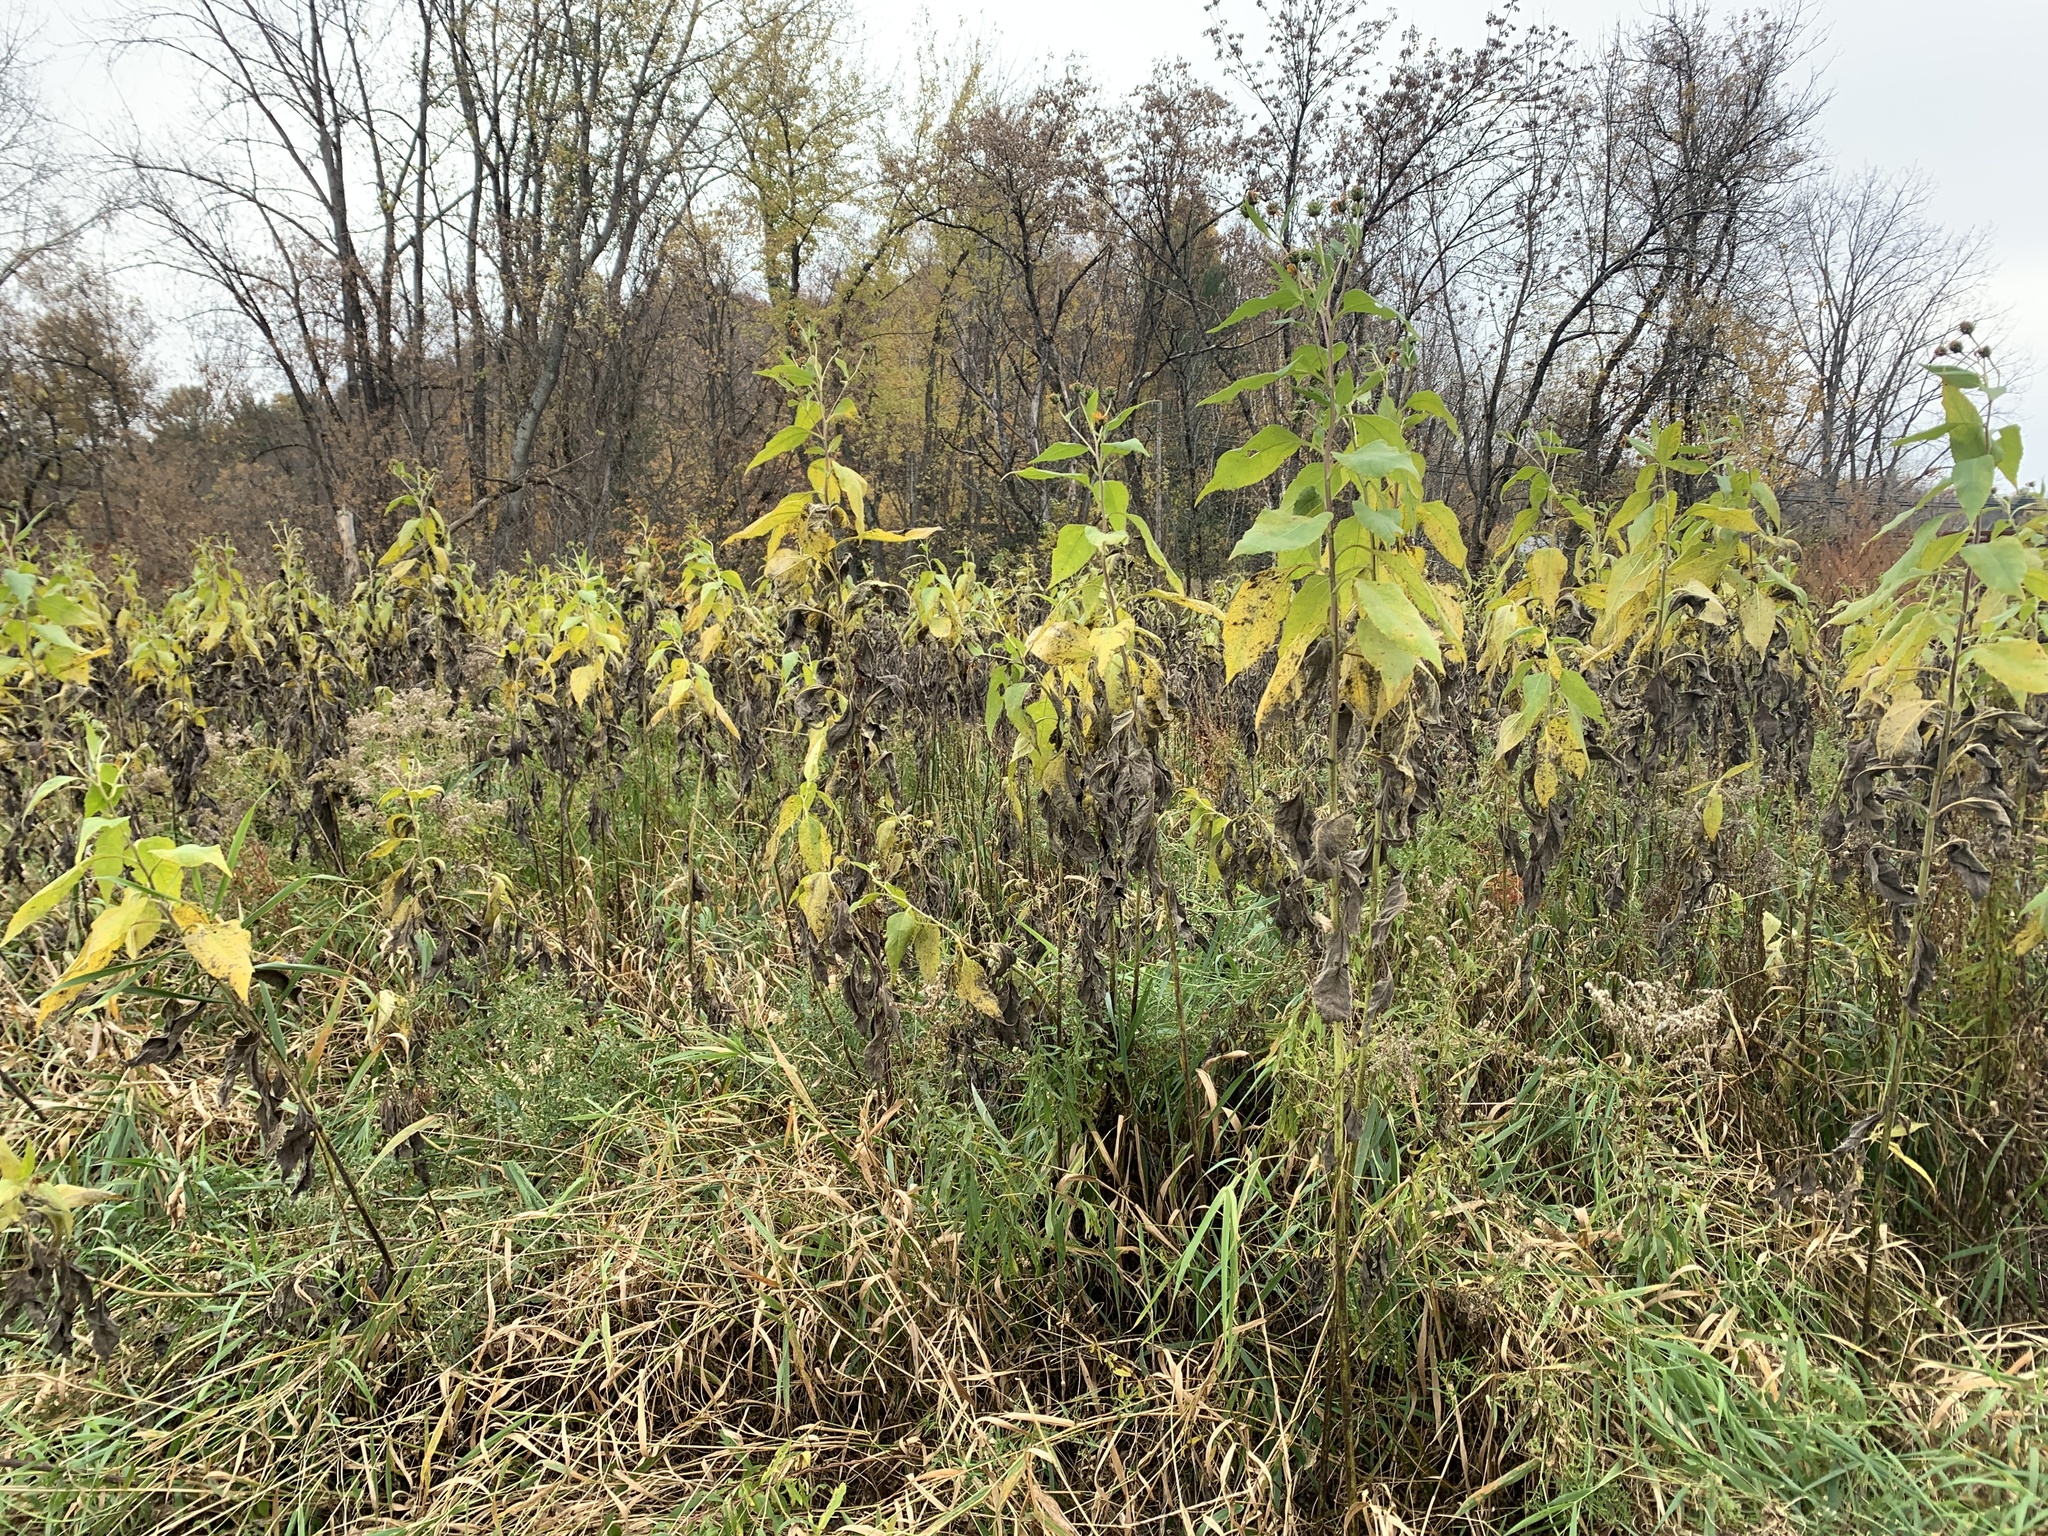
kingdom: Plantae
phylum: Tracheophyta
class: Magnoliopsida
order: Asterales
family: Asteraceae
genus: Helianthus
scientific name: Helianthus tuberosus
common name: Jerusalem artichoke
